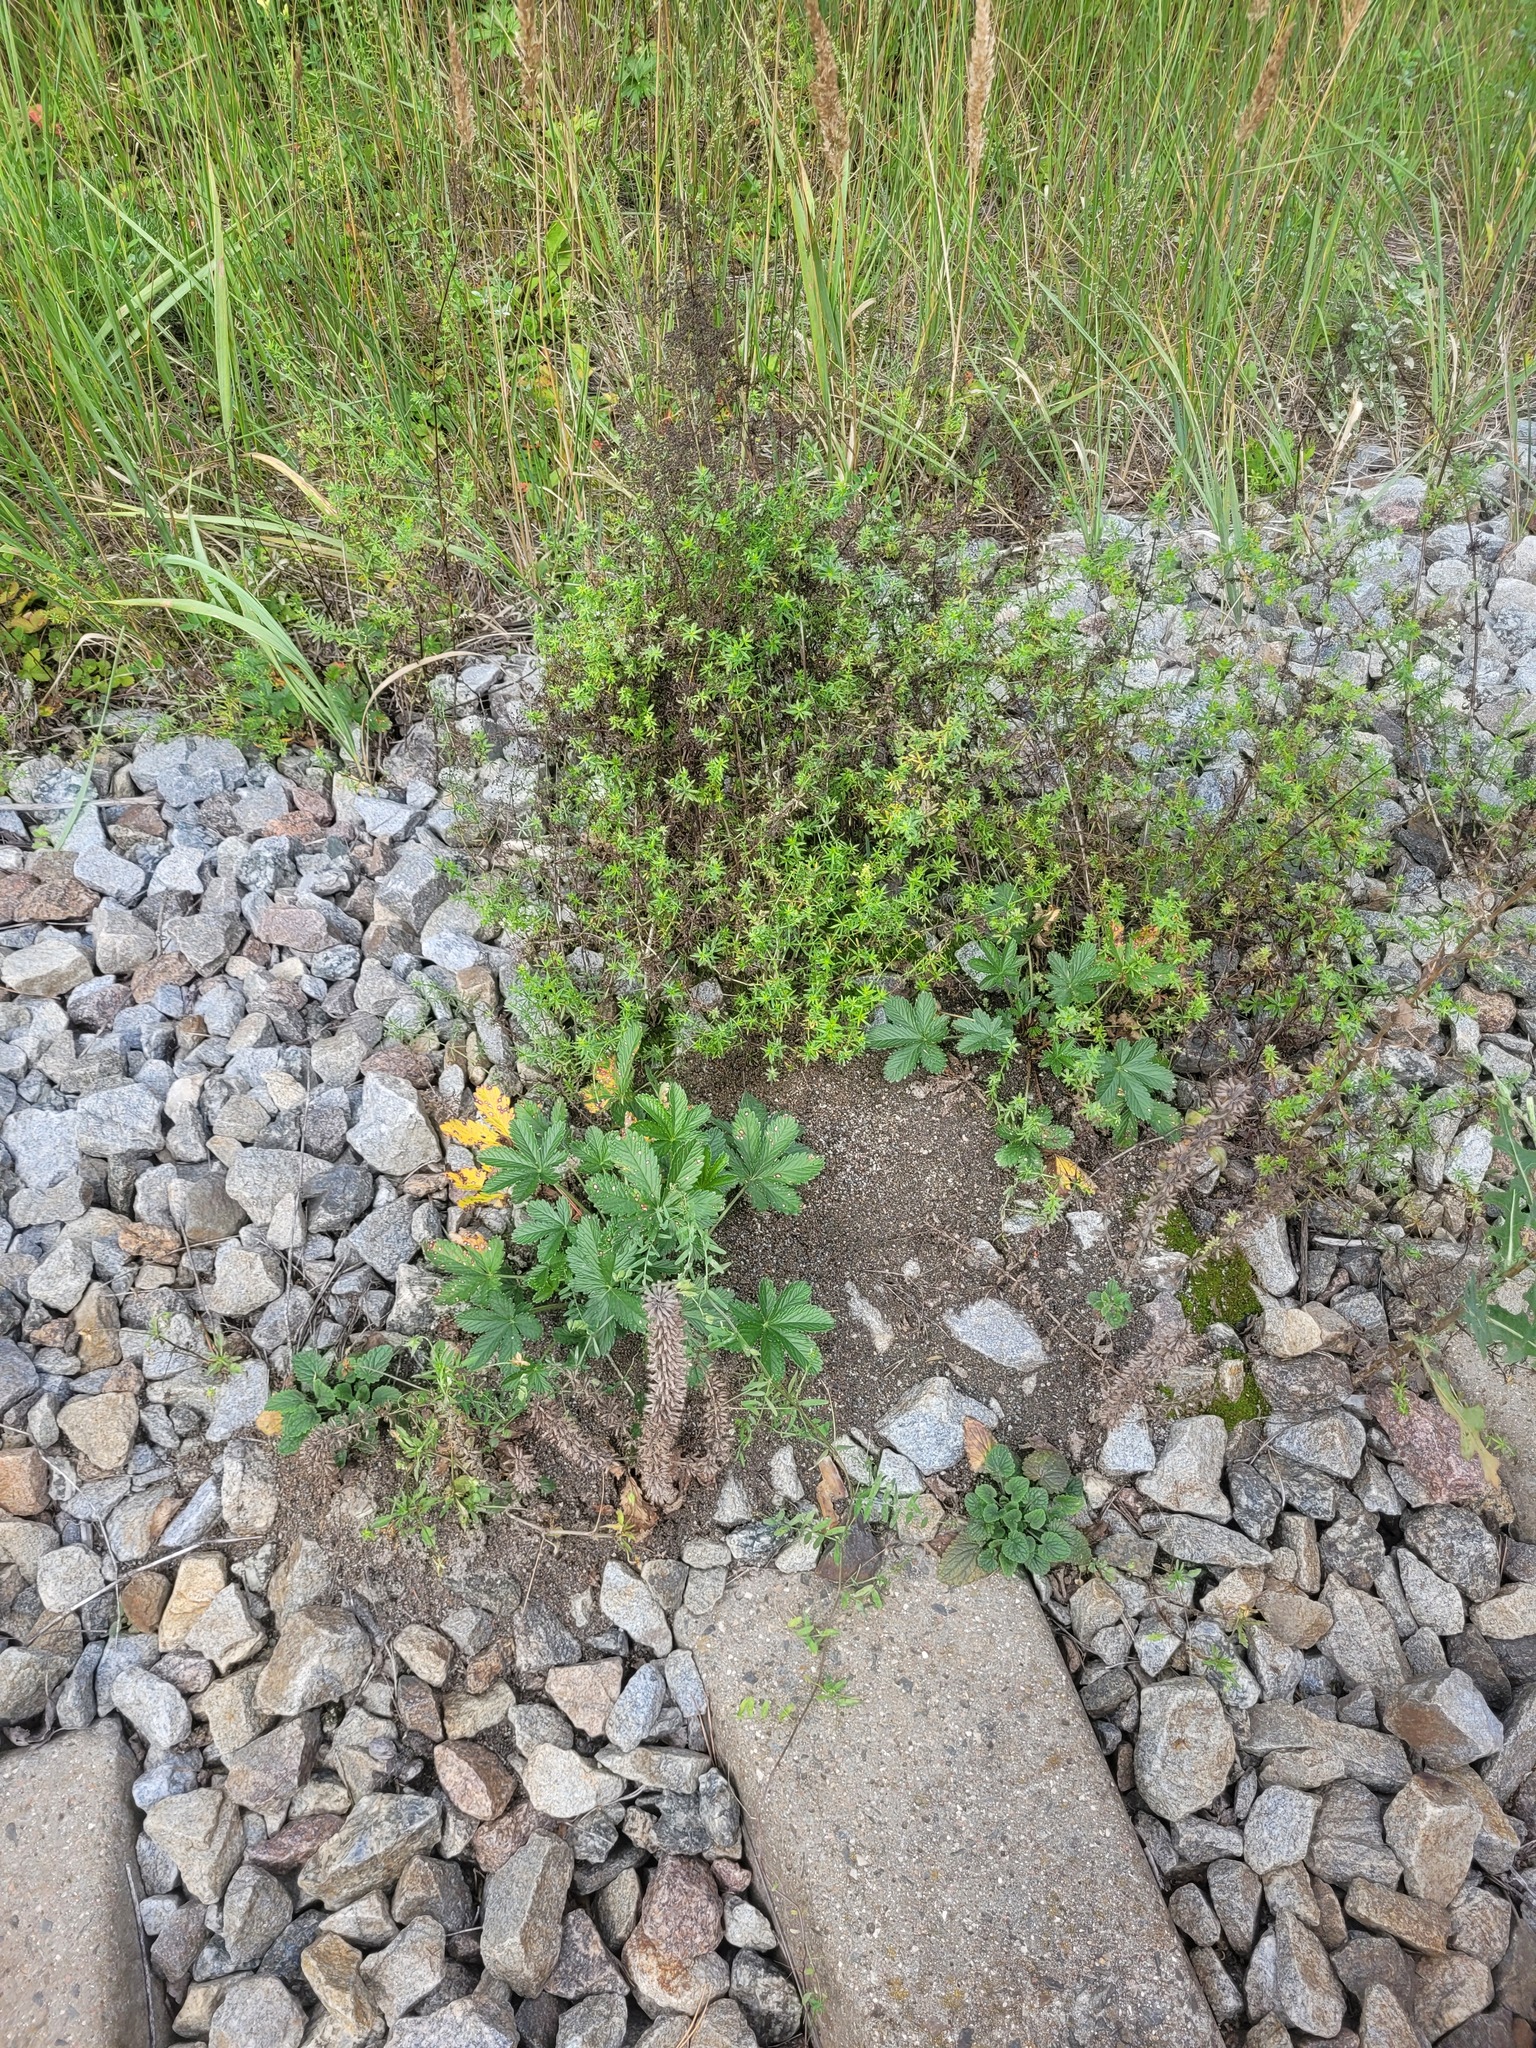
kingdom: Plantae
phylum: Tracheophyta
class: Magnoliopsida
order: Rosales
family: Rosaceae
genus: Potentilla
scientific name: Potentilla thuringiaca
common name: European cinquefoil
